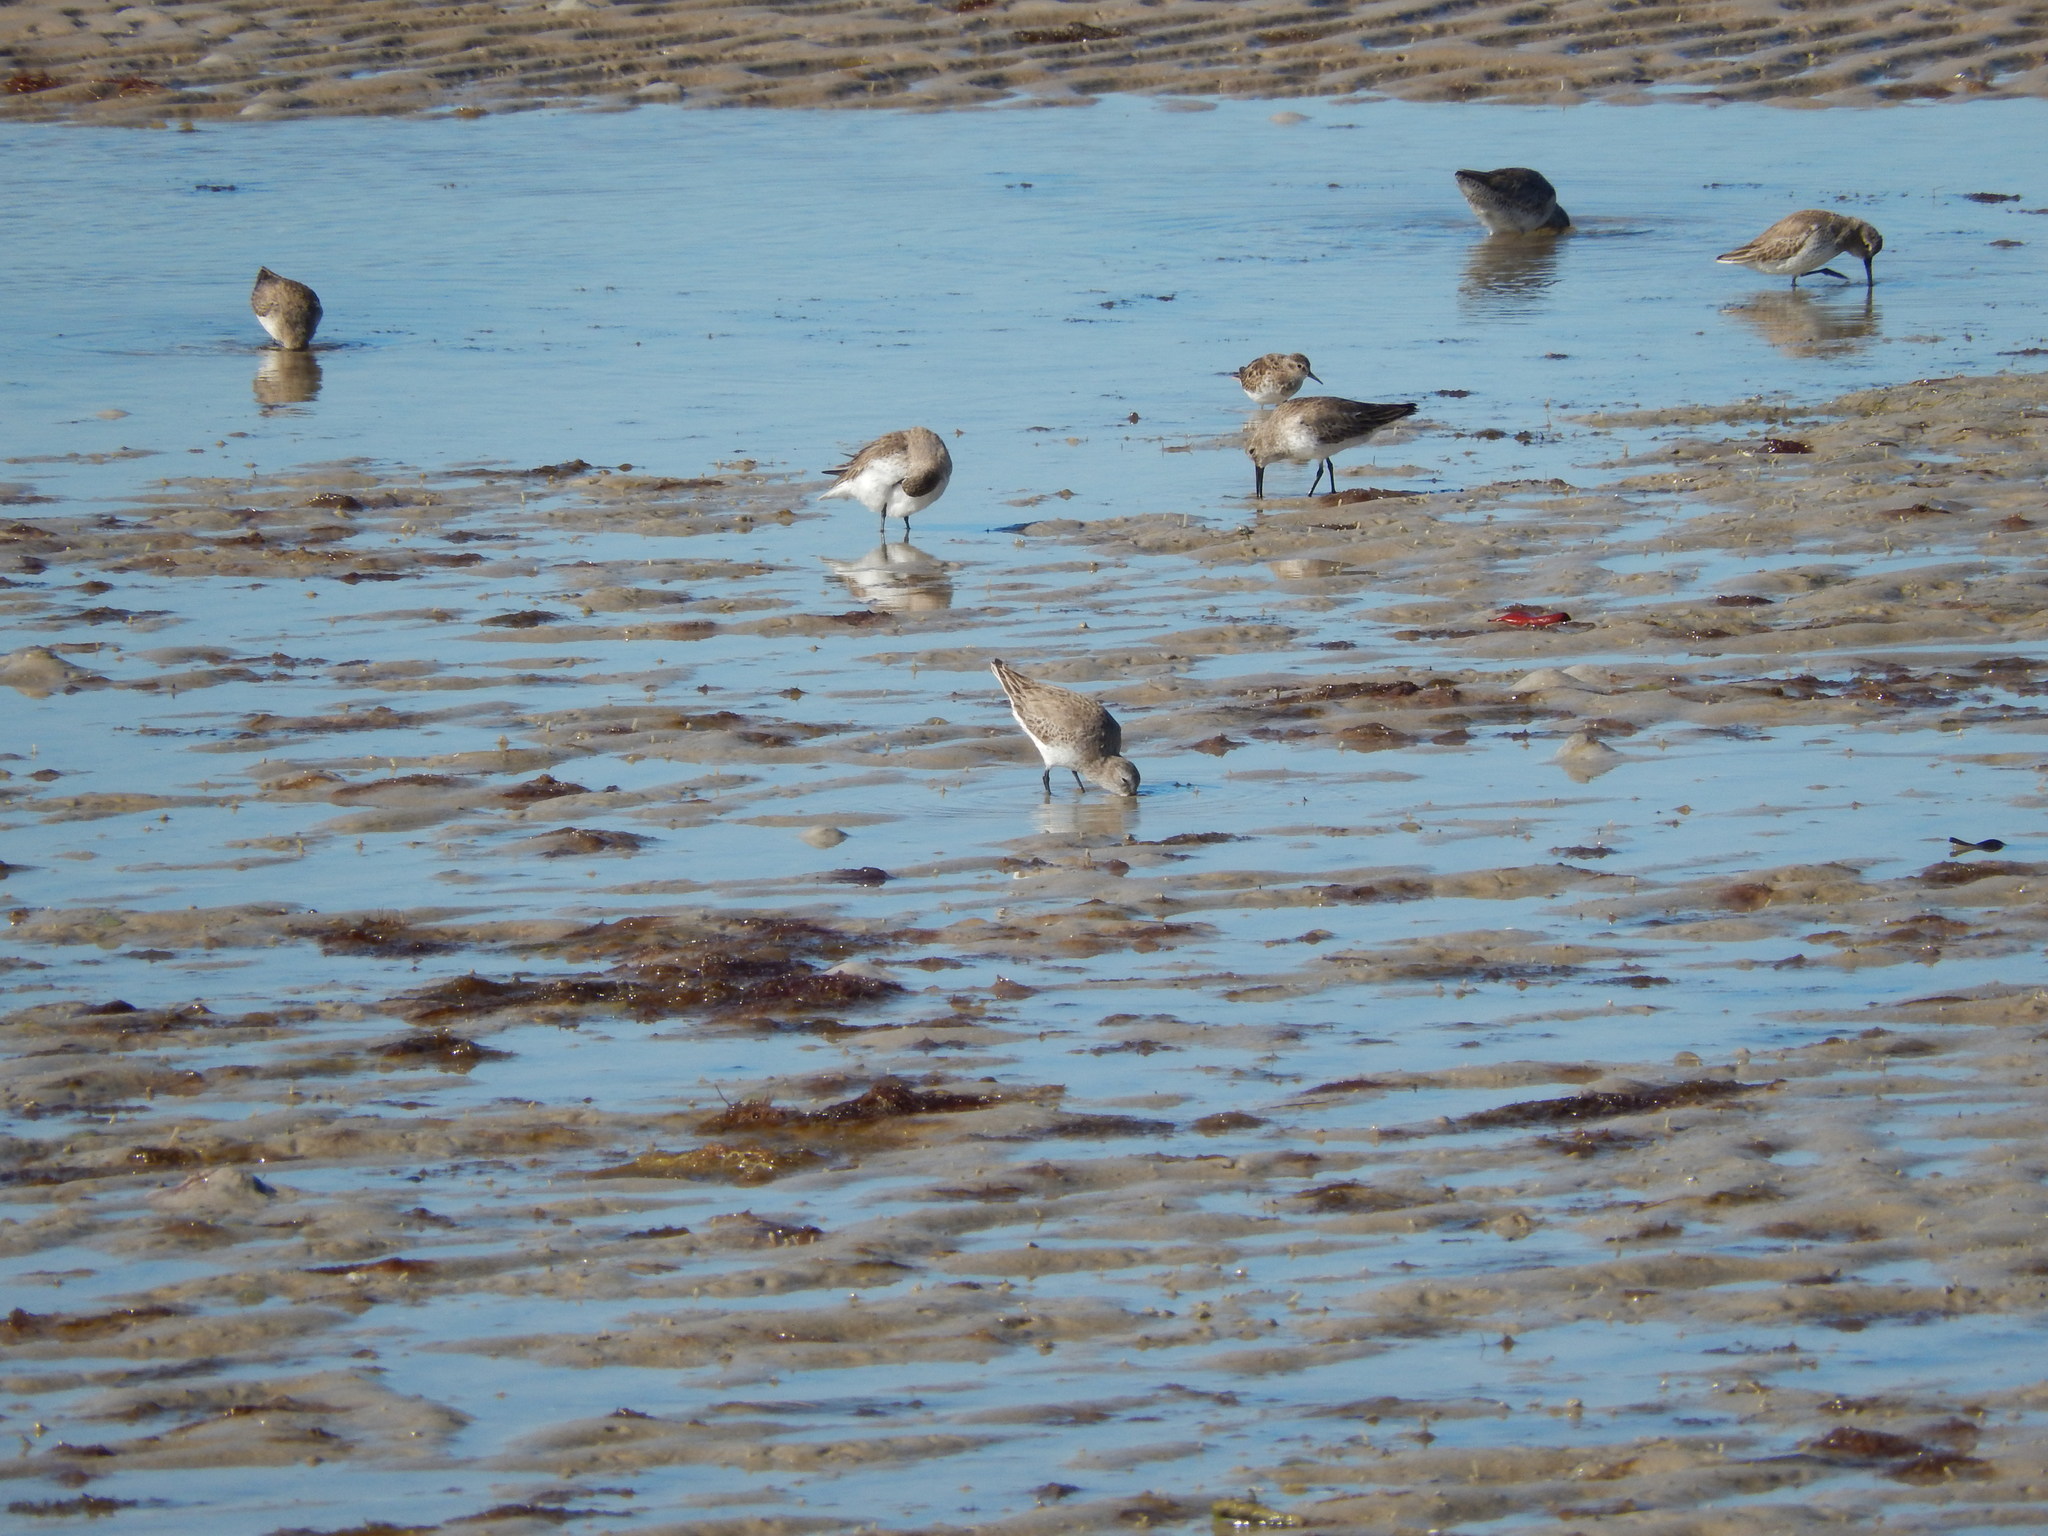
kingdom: Animalia
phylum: Chordata
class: Aves
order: Charadriiformes
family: Scolopacidae
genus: Calidris
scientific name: Calidris alpina
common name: Dunlin
